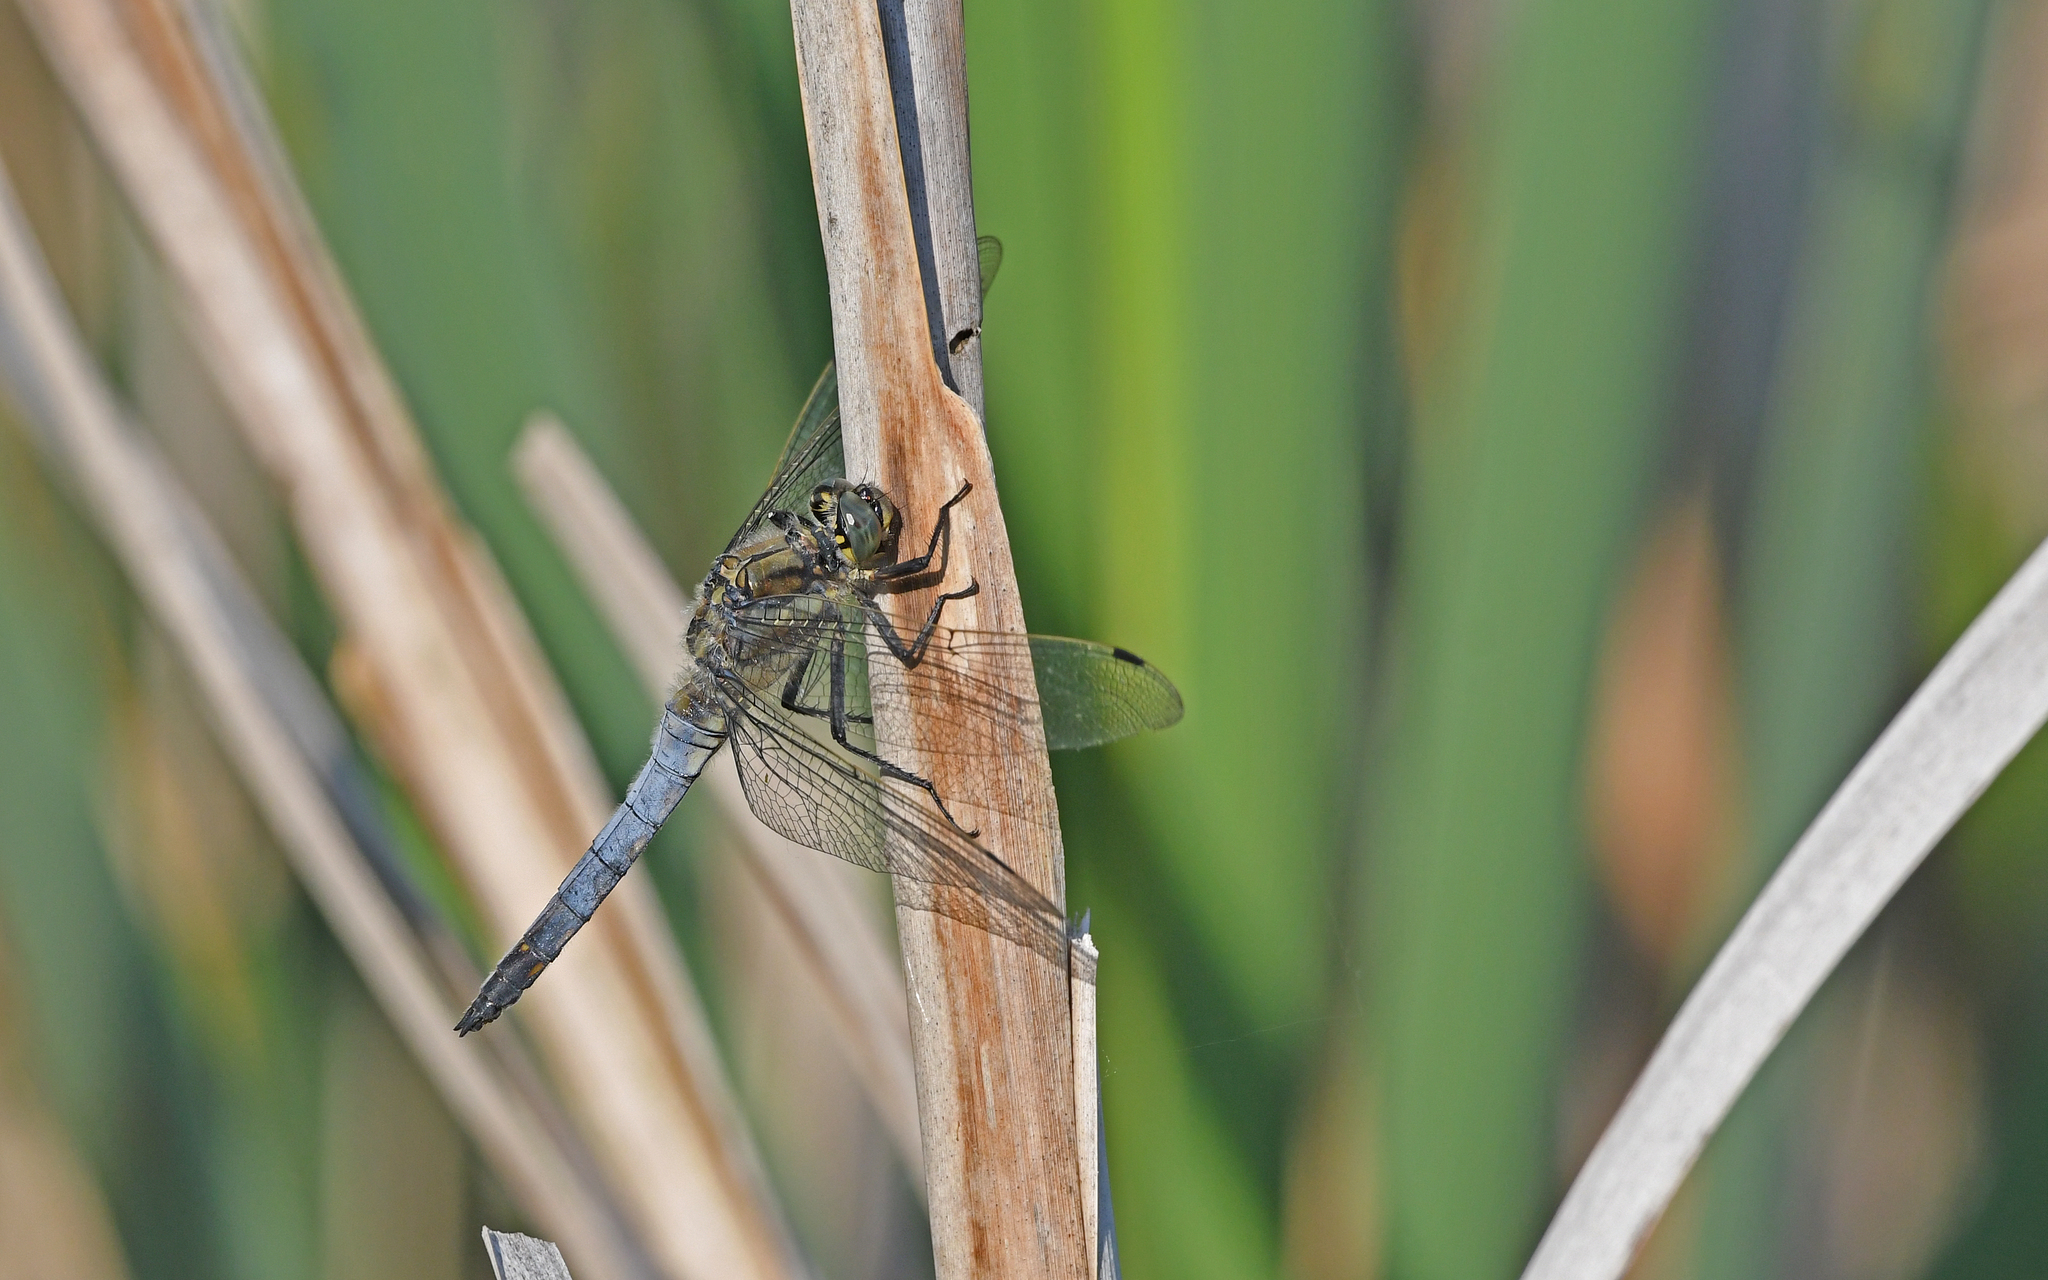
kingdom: Animalia
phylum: Arthropoda
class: Insecta
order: Odonata
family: Libellulidae
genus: Orthetrum
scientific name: Orthetrum cancellatum
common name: Black-tailed skimmer
